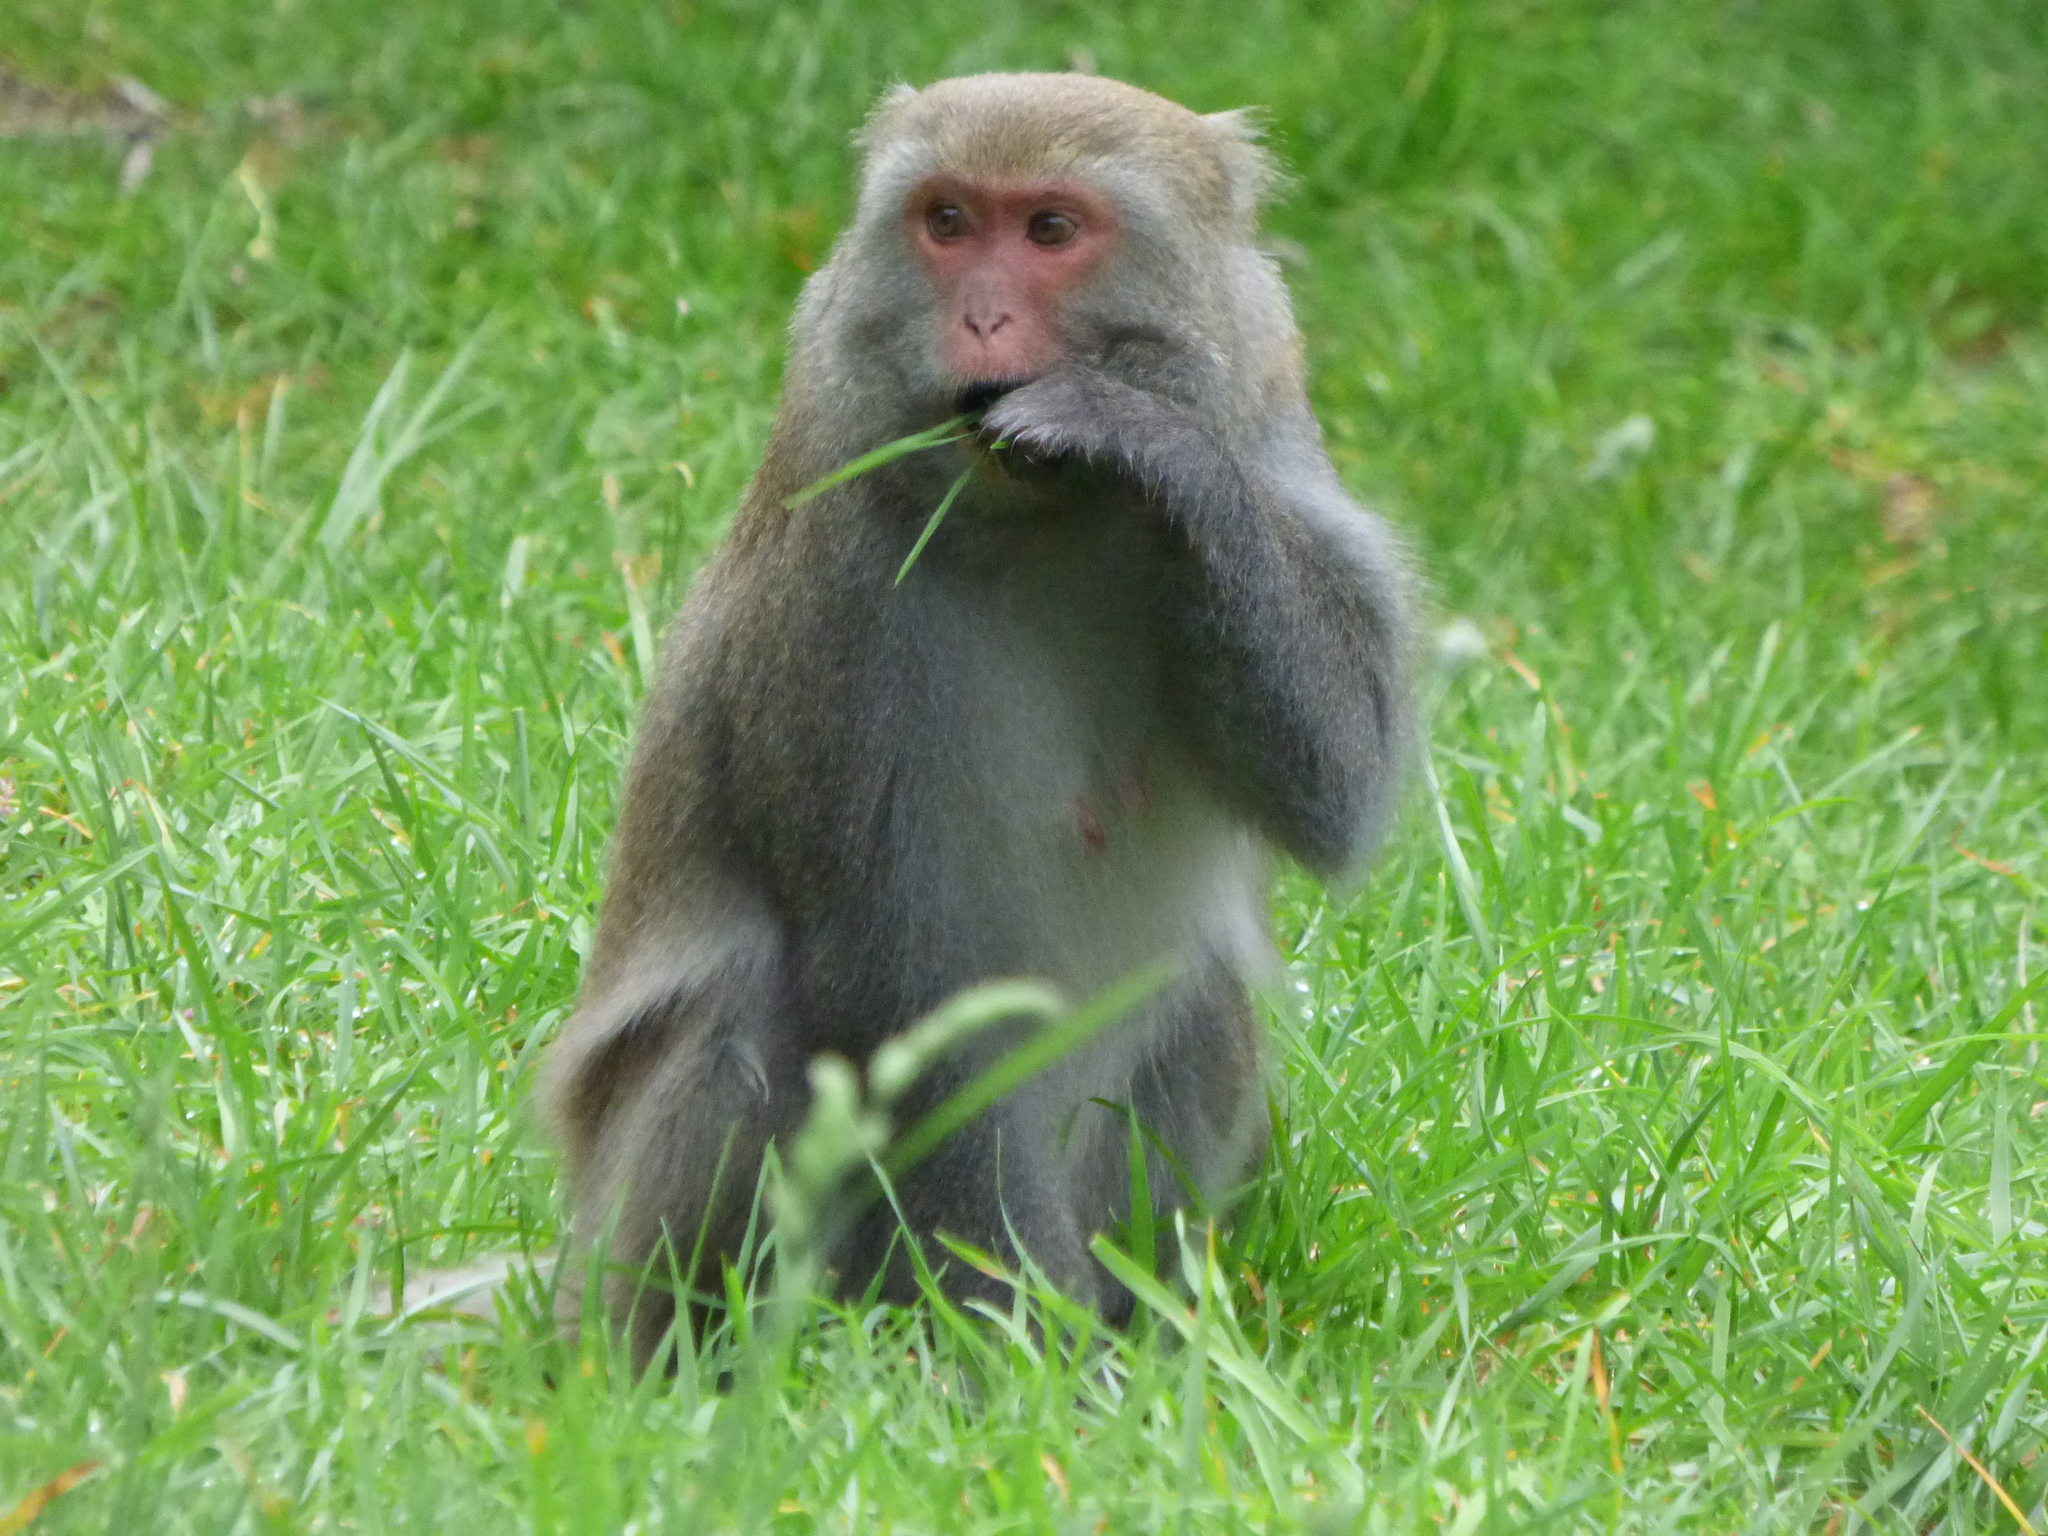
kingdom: Animalia
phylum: Chordata
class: Mammalia
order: Primates
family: Cercopithecidae
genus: Macaca
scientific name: Macaca cyclopis
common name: Formosan rock macaque
